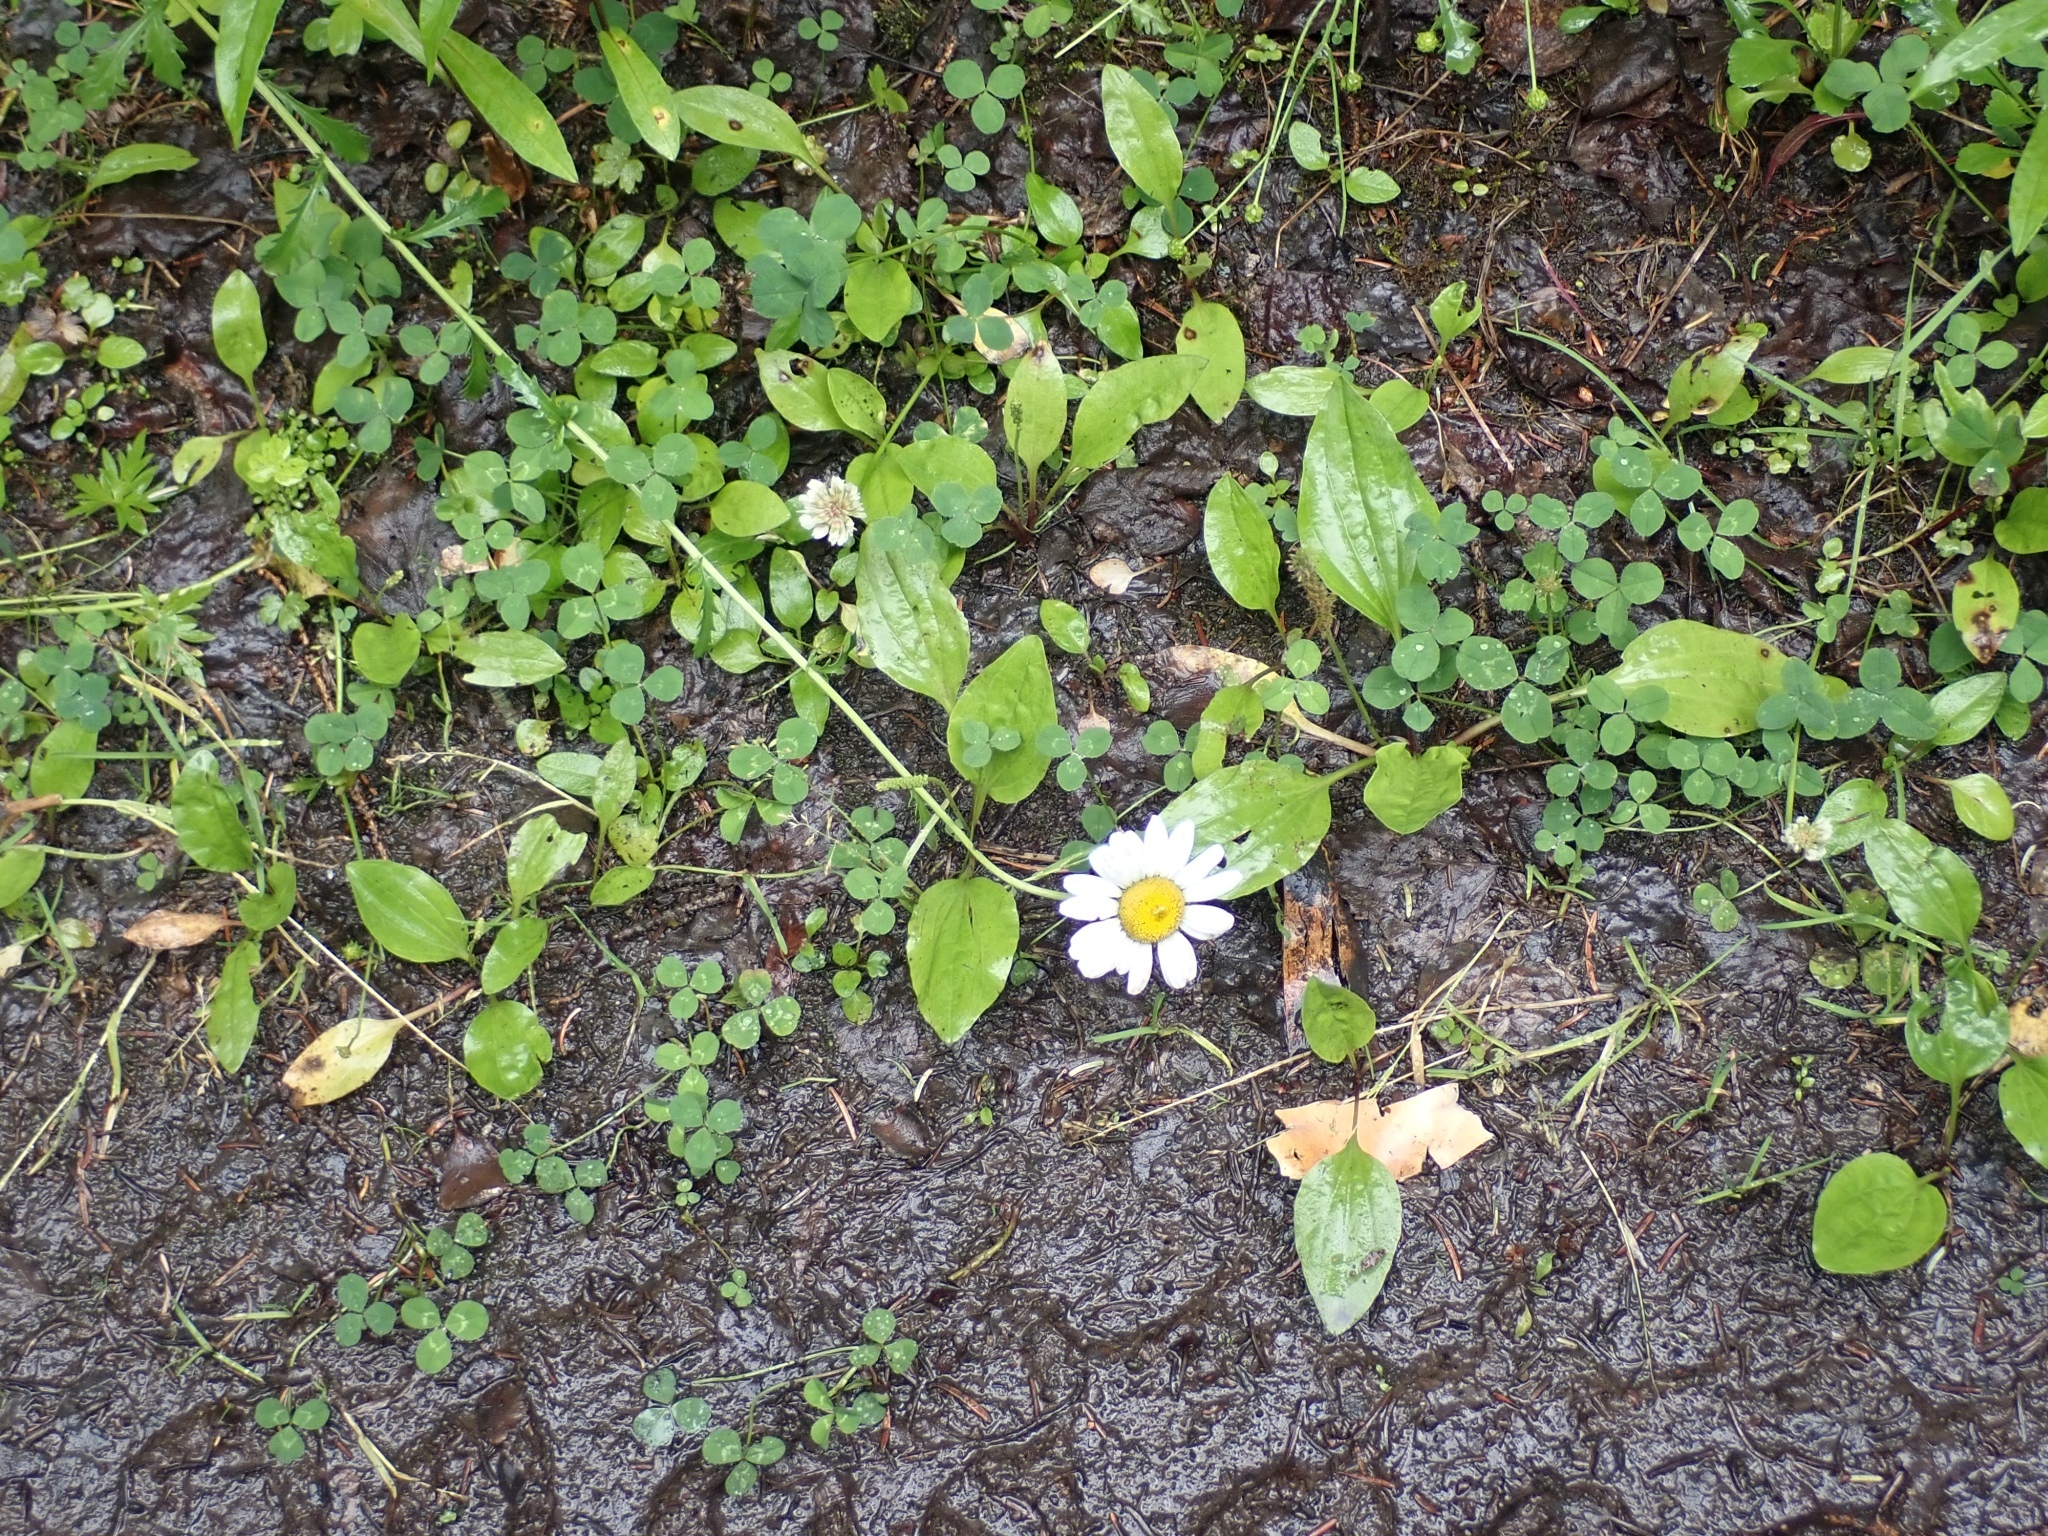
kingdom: Plantae
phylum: Tracheophyta
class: Magnoliopsida
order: Asterales
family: Asteraceae
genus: Leucanthemum
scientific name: Leucanthemum vulgare
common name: Oxeye daisy
